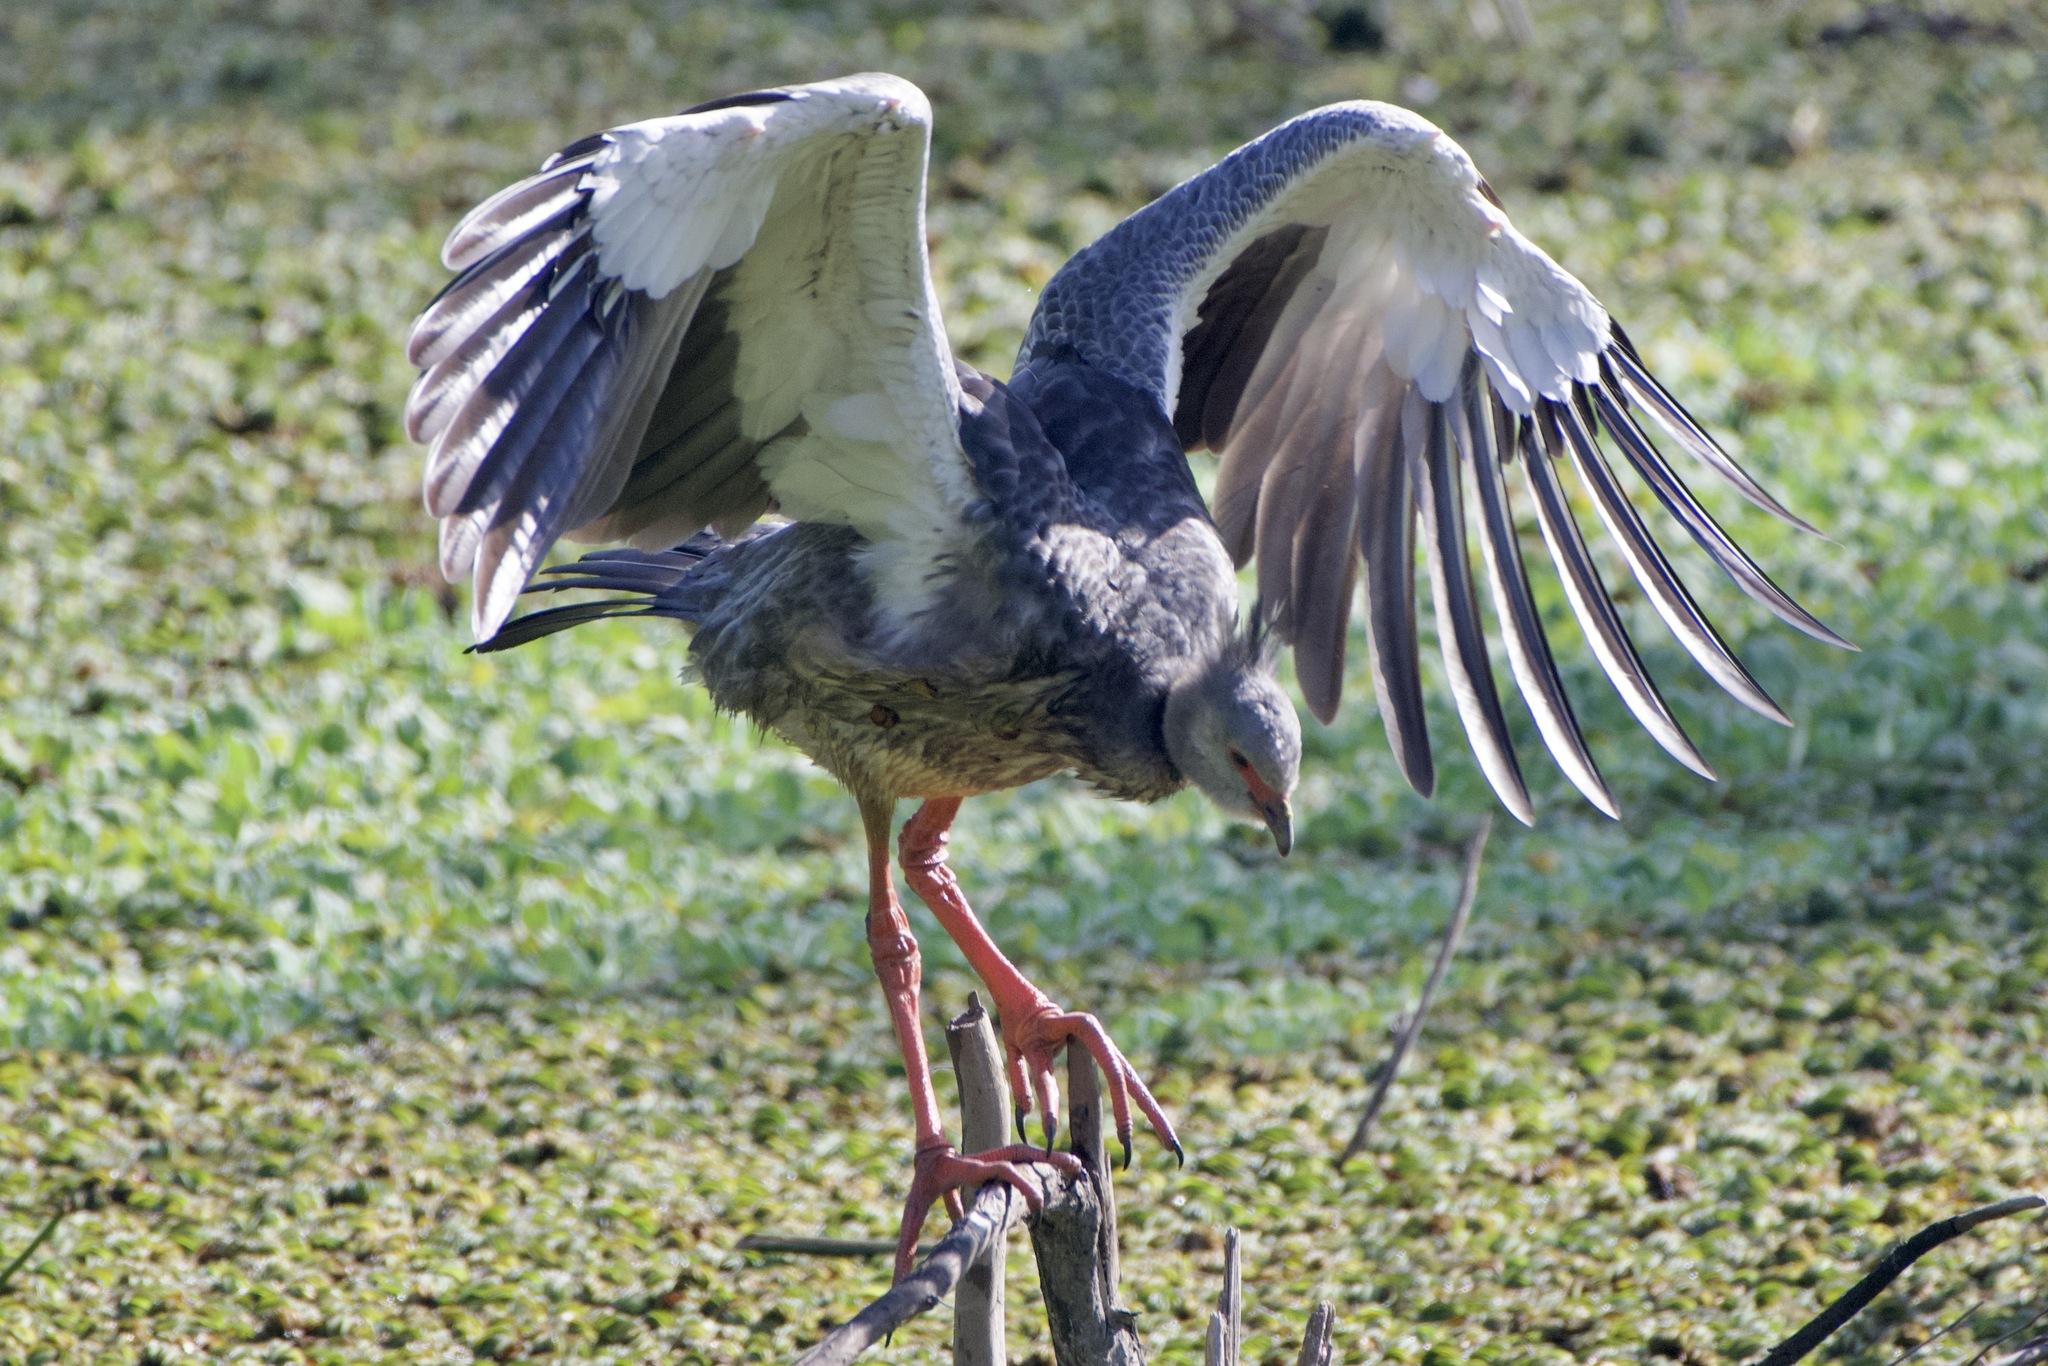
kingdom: Animalia
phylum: Chordata
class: Aves
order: Anseriformes
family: Anhimidae
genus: Chauna
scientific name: Chauna torquata
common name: Southern screamer
